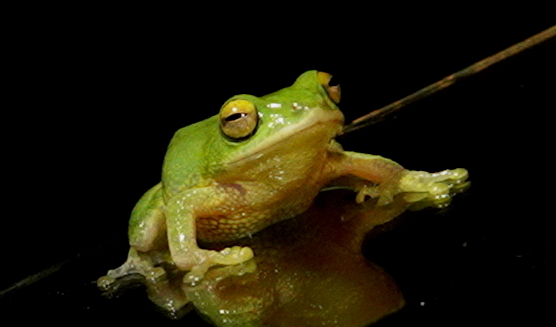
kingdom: Animalia
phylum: Chordata
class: Amphibia
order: Anura
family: Rhacophoridae
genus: Pseudophilautus
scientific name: Pseudophilautus ocularis
